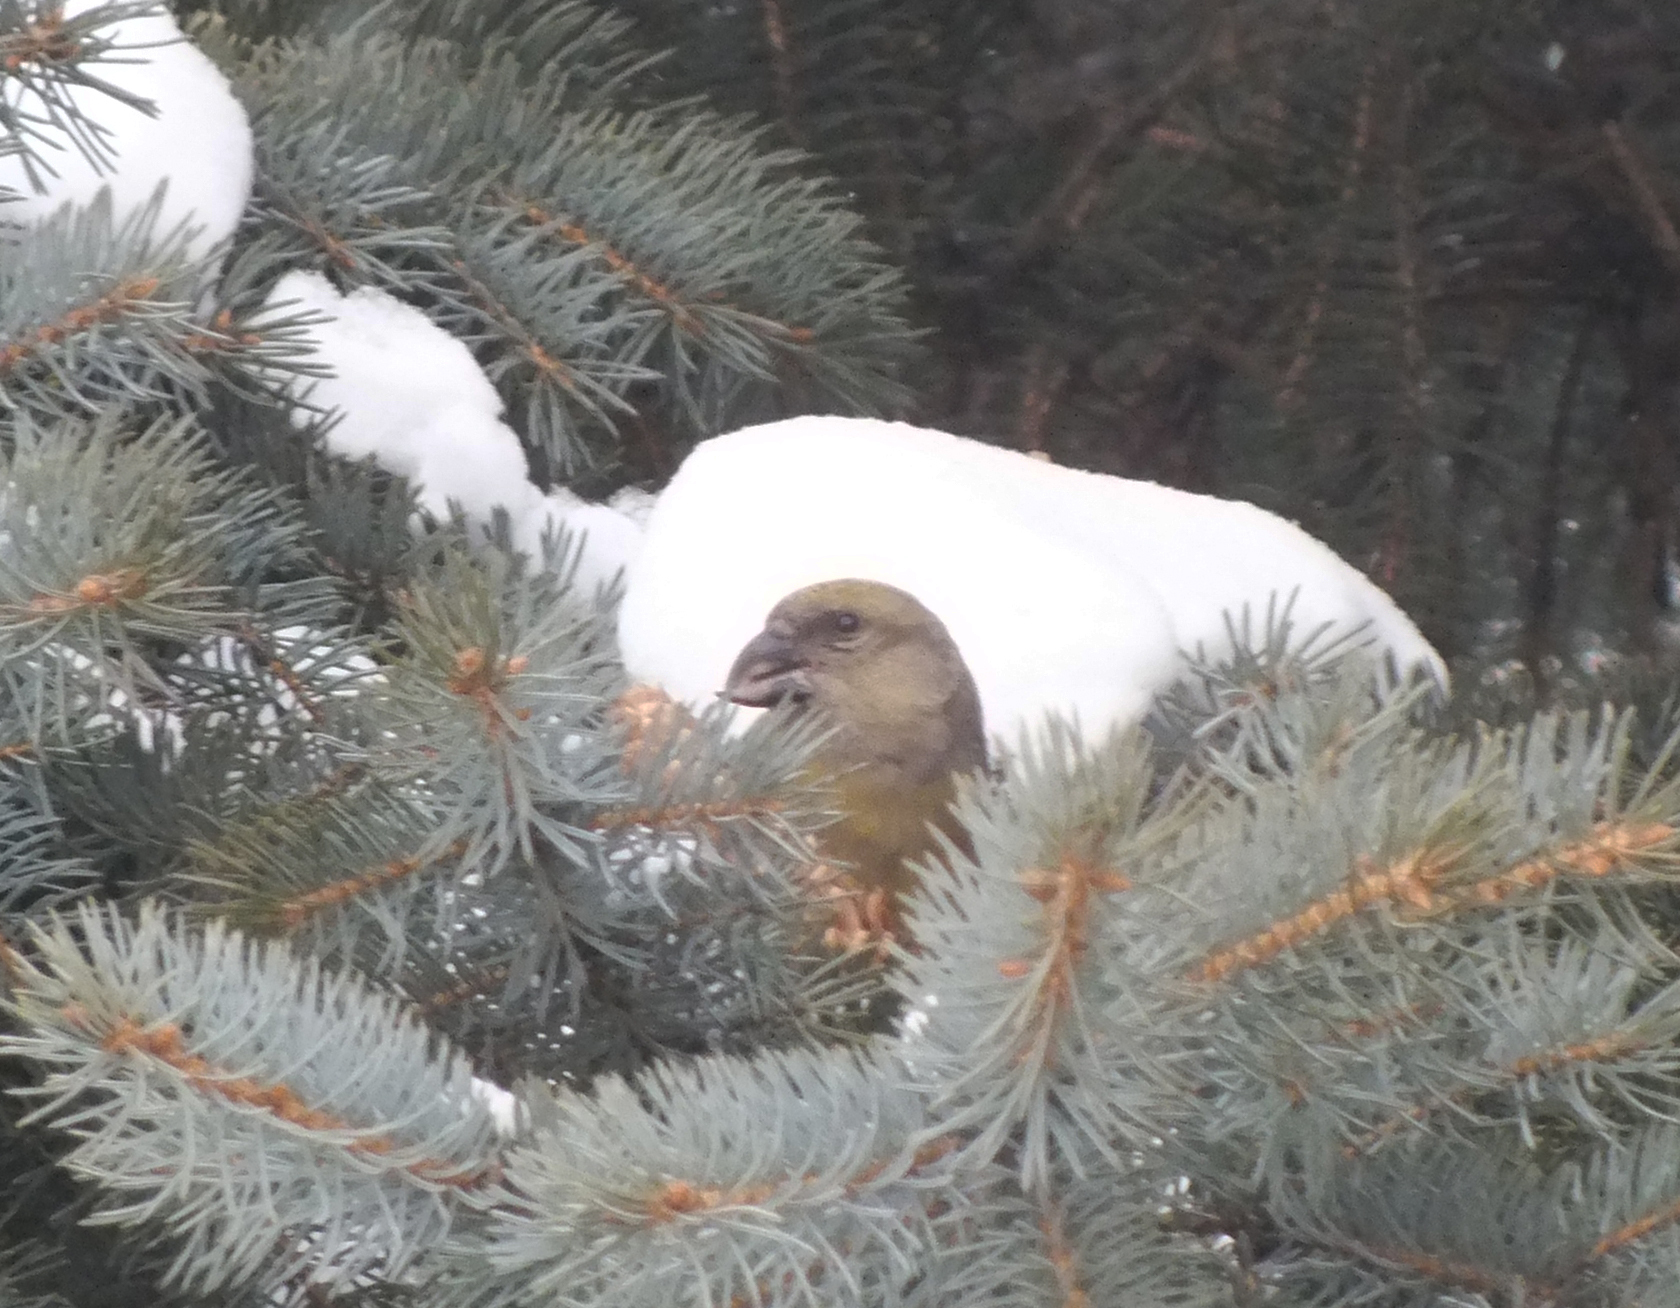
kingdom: Animalia
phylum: Chordata
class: Aves
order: Passeriformes
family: Fringillidae
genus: Loxia
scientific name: Loxia curvirostra
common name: Red crossbill
